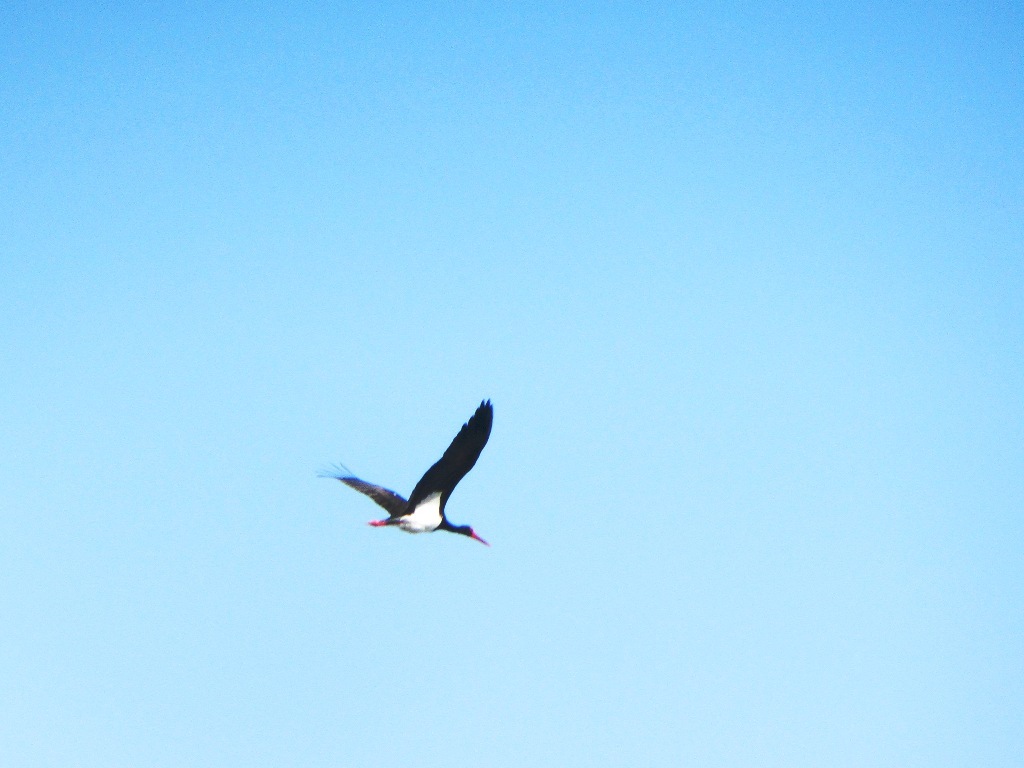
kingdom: Animalia
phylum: Chordata
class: Aves
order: Ciconiiformes
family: Ciconiidae
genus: Ciconia
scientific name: Ciconia nigra
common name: Black stork
